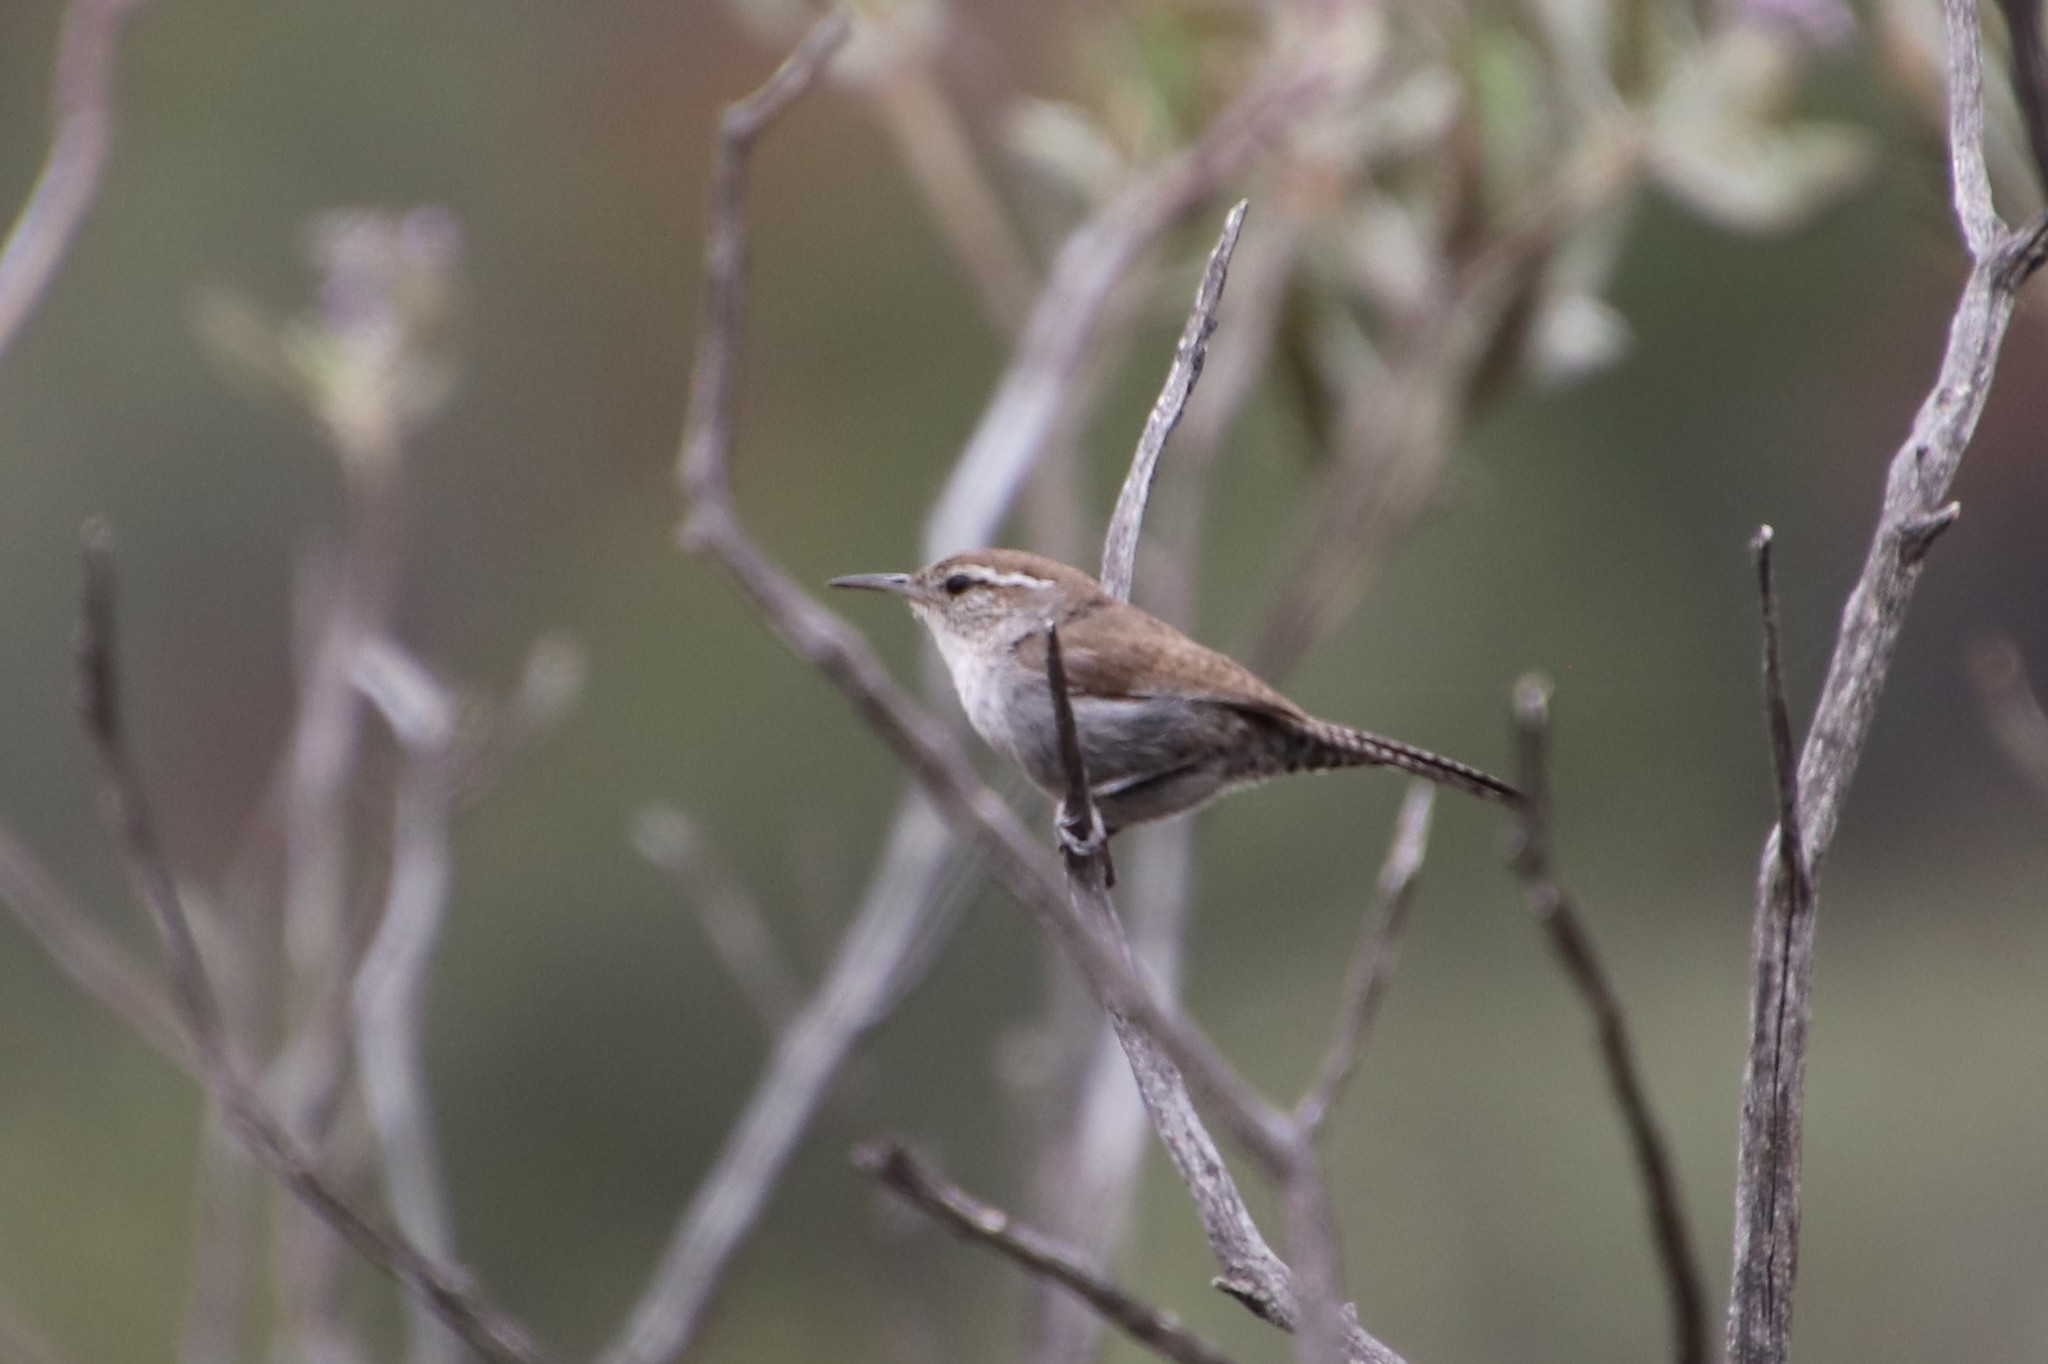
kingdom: Animalia
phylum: Chordata
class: Aves
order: Passeriformes
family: Troglodytidae
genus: Thryomanes
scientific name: Thryomanes bewickii
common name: Bewick's wren
